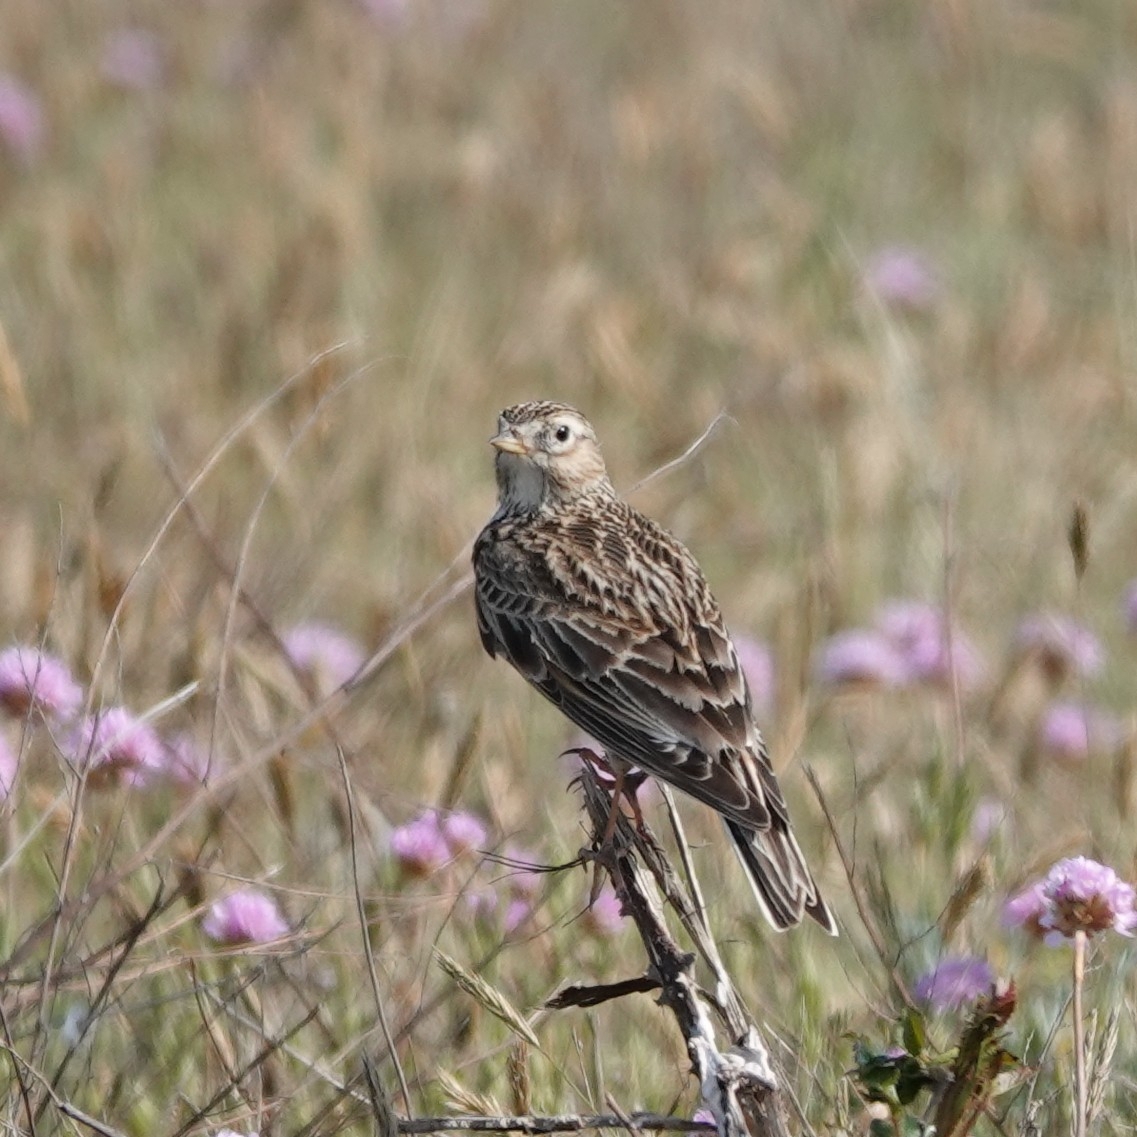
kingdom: Animalia
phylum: Chordata
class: Aves
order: Passeriformes
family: Alaudidae
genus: Alauda
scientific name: Alauda arvensis
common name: Eurasian skylark
